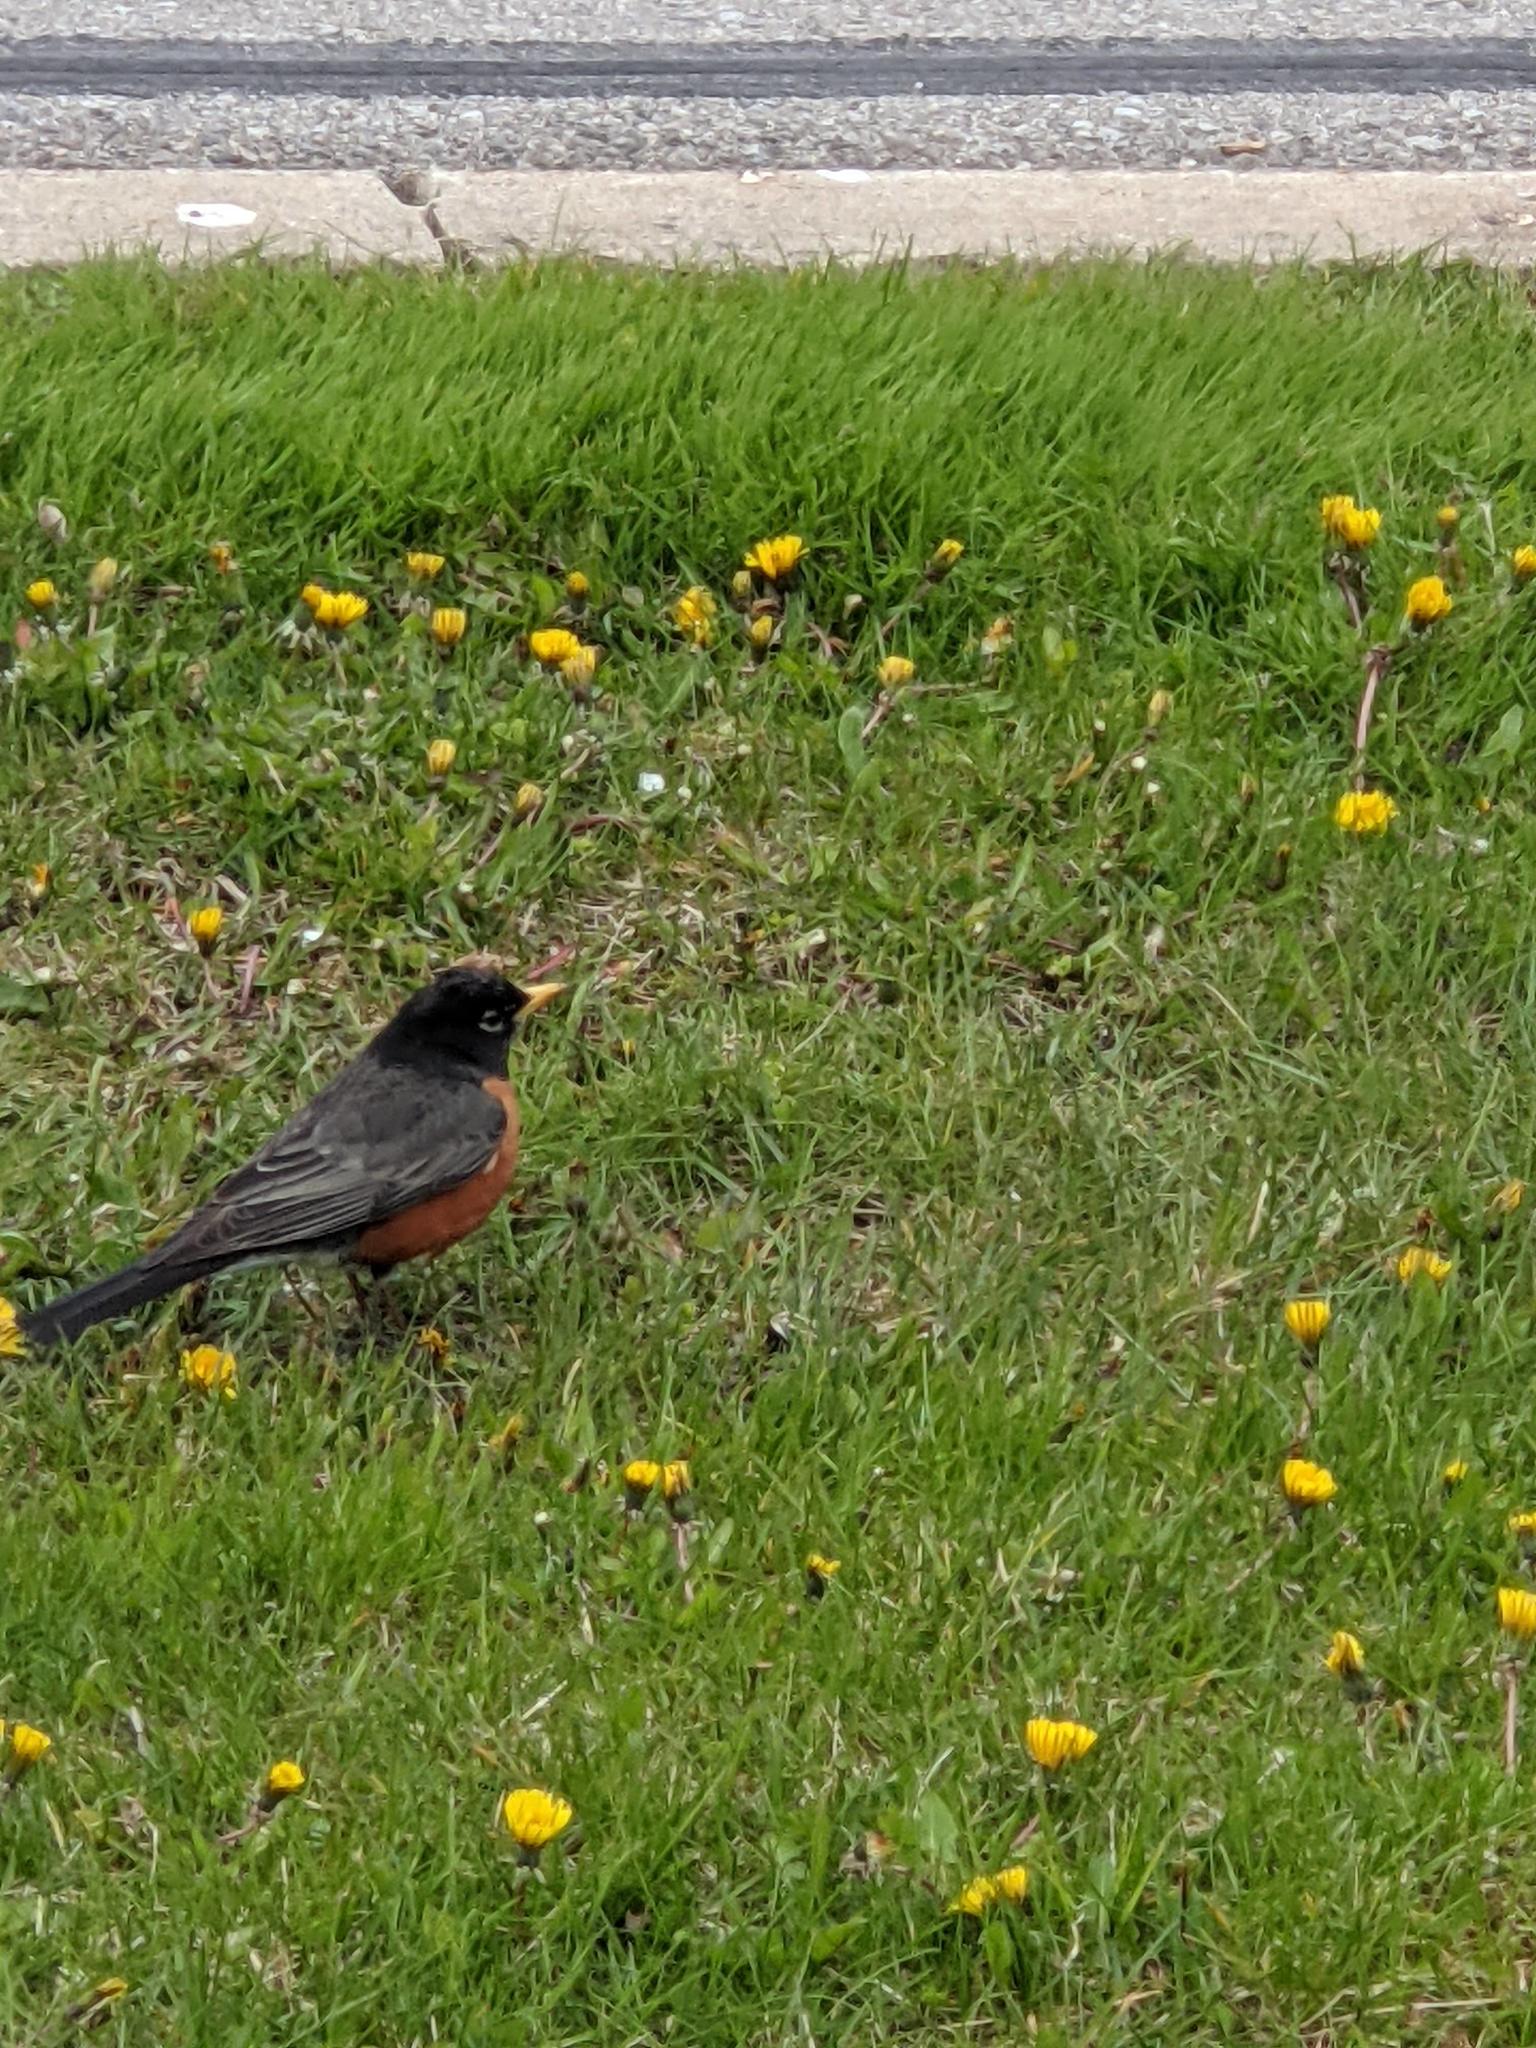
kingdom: Animalia
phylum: Chordata
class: Aves
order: Passeriformes
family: Turdidae
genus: Turdus
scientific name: Turdus migratorius
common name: American robin
